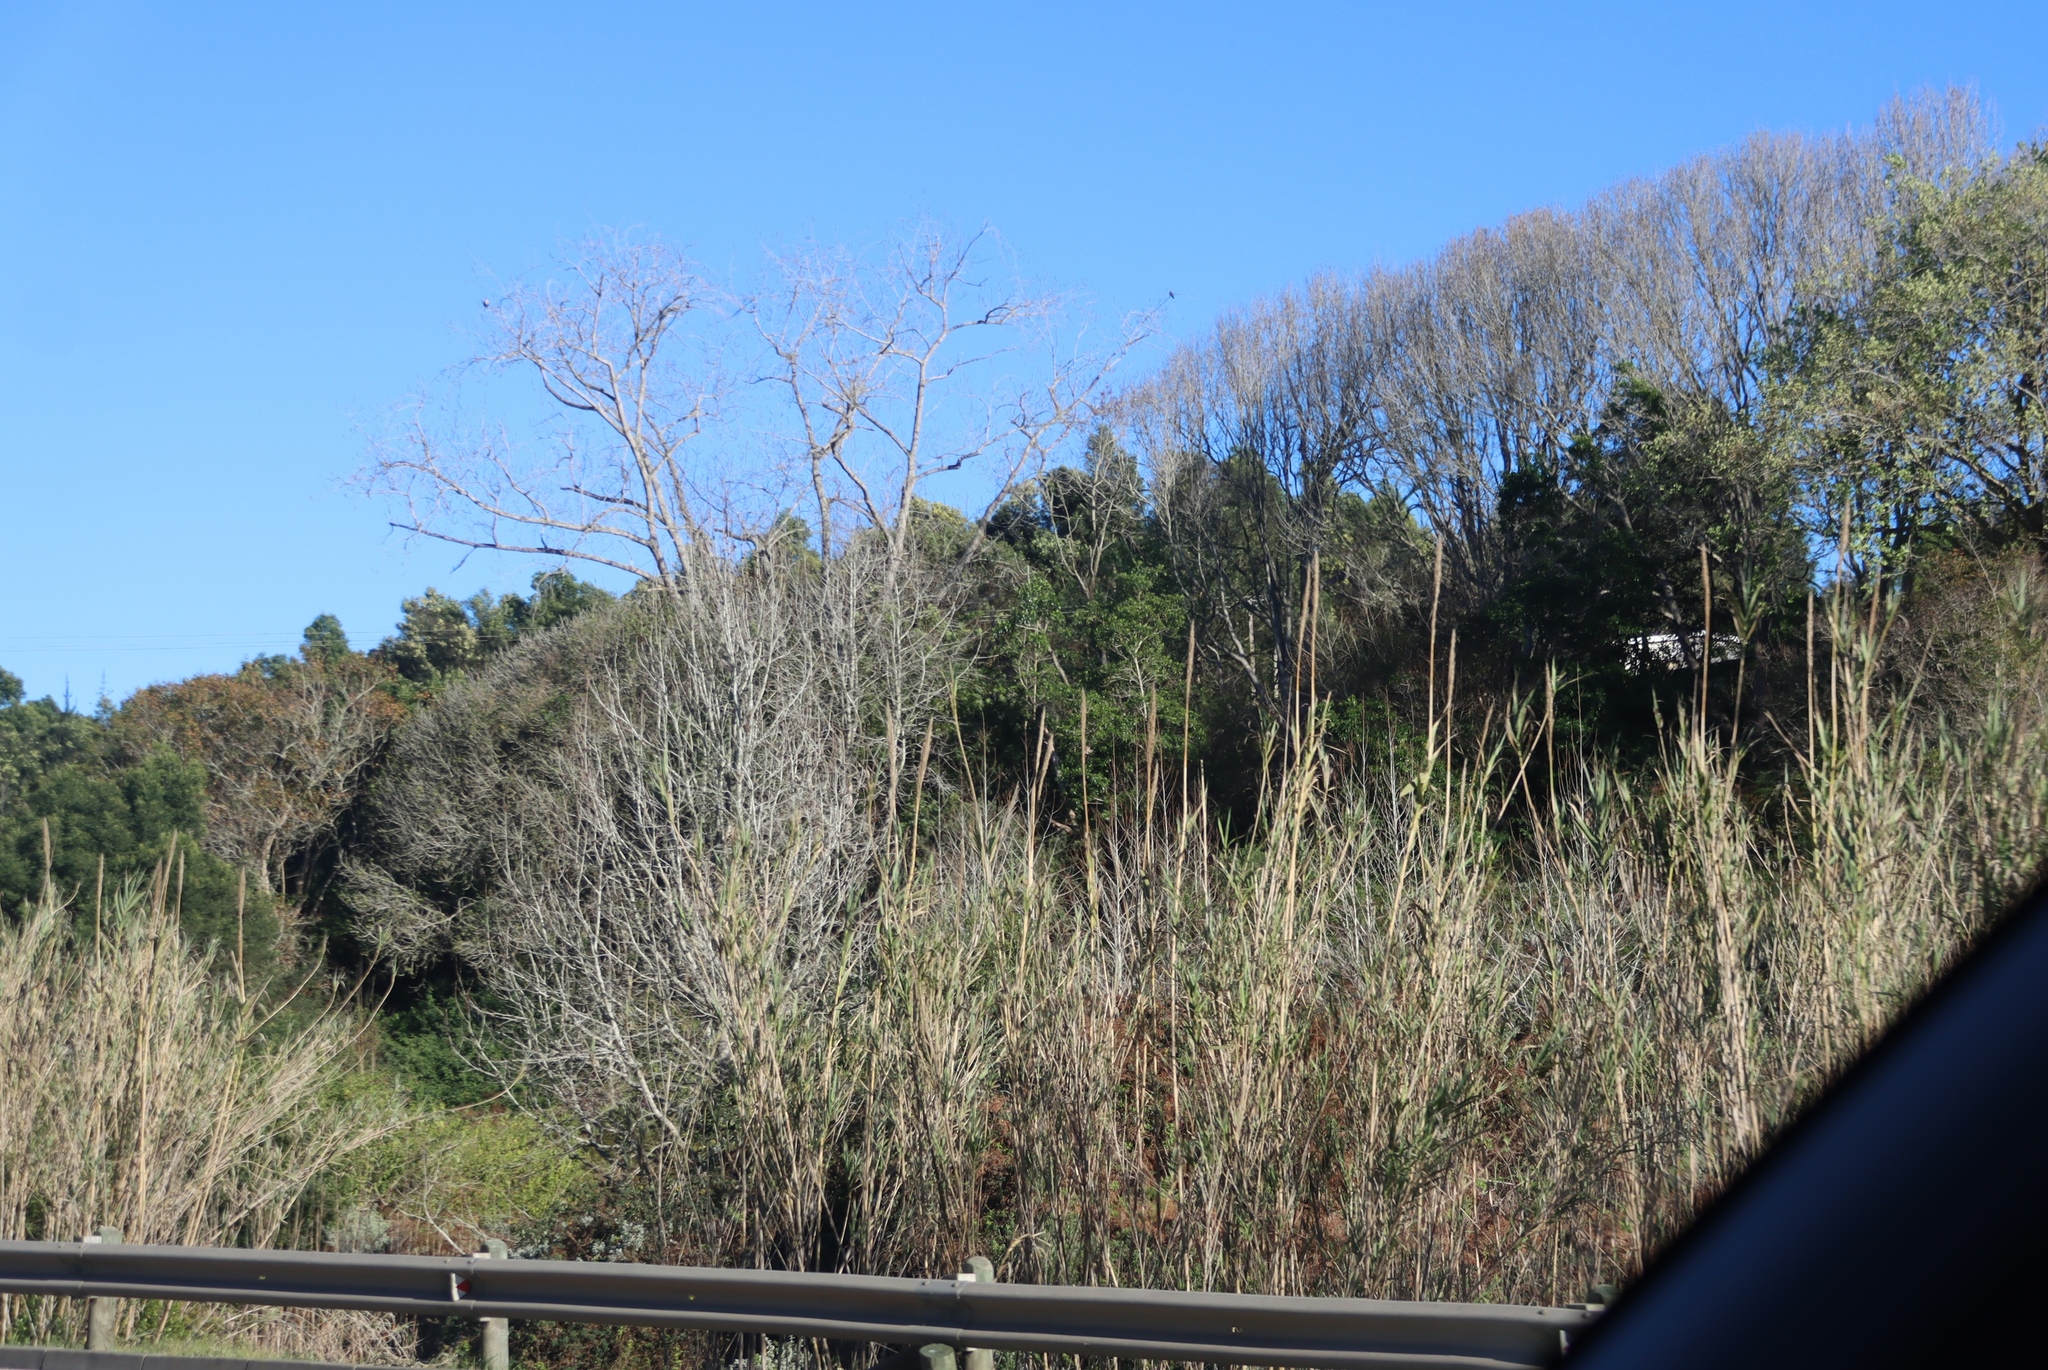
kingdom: Plantae
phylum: Tracheophyta
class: Liliopsida
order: Poales
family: Poaceae
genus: Arundo
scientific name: Arundo donax
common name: Giant reed
